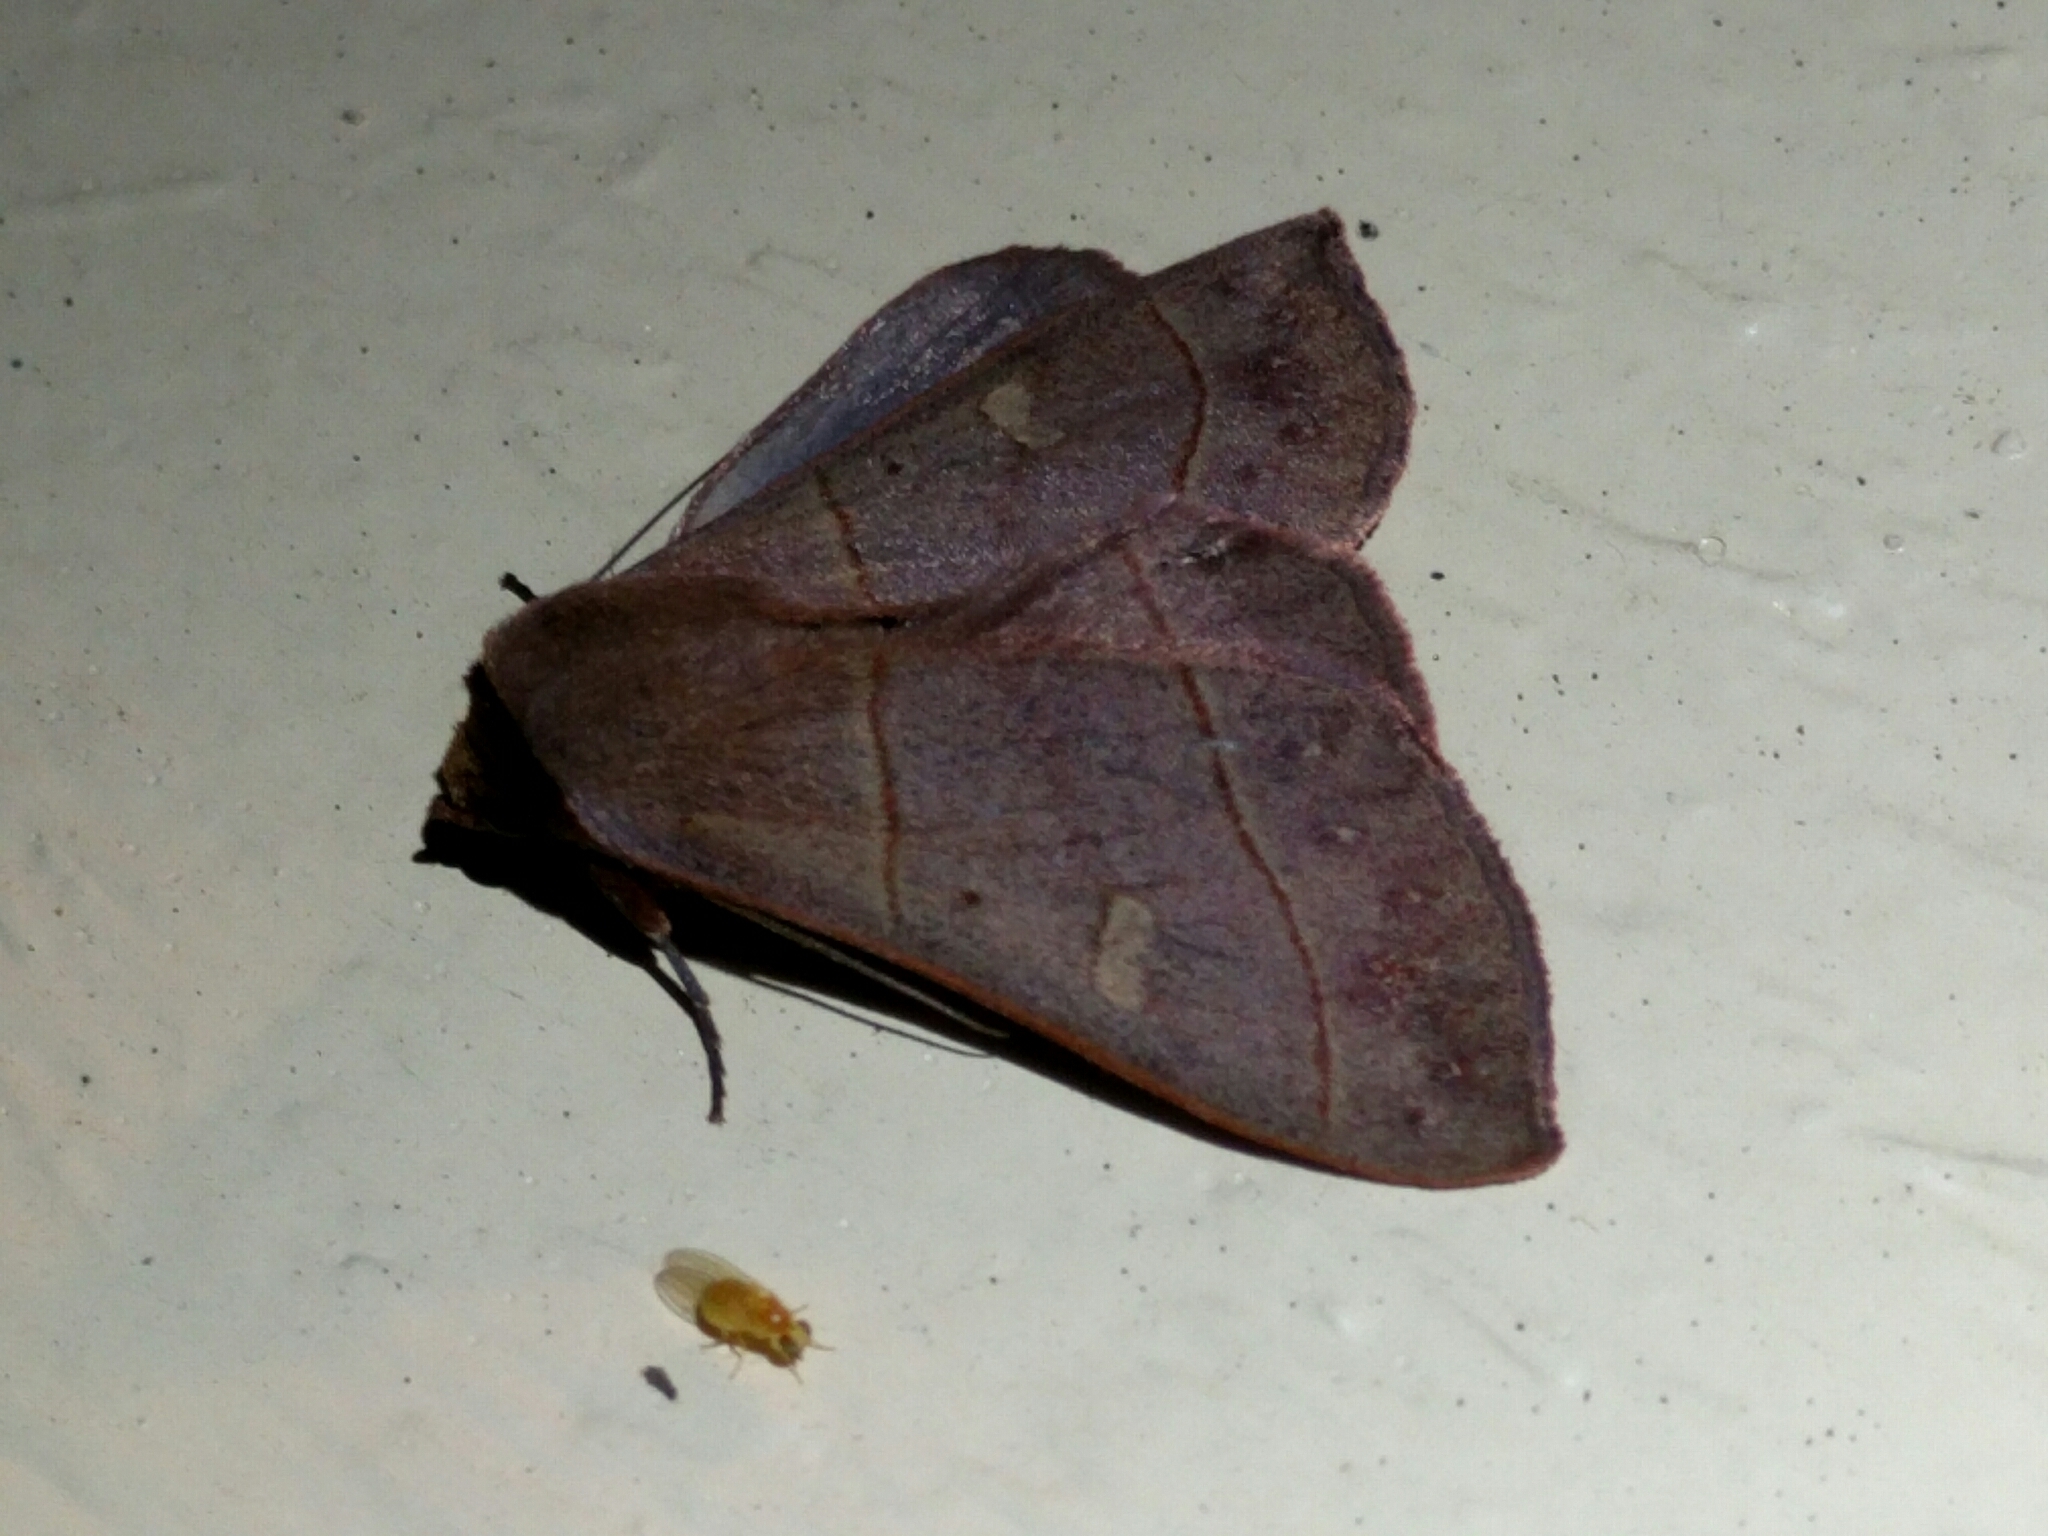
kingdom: Animalia
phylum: Arthropoda
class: Insecta
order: Lepidoptera
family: Erebidae
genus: Panopoda
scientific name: Panopoda rufimargo
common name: Red-lined panopoda moth
